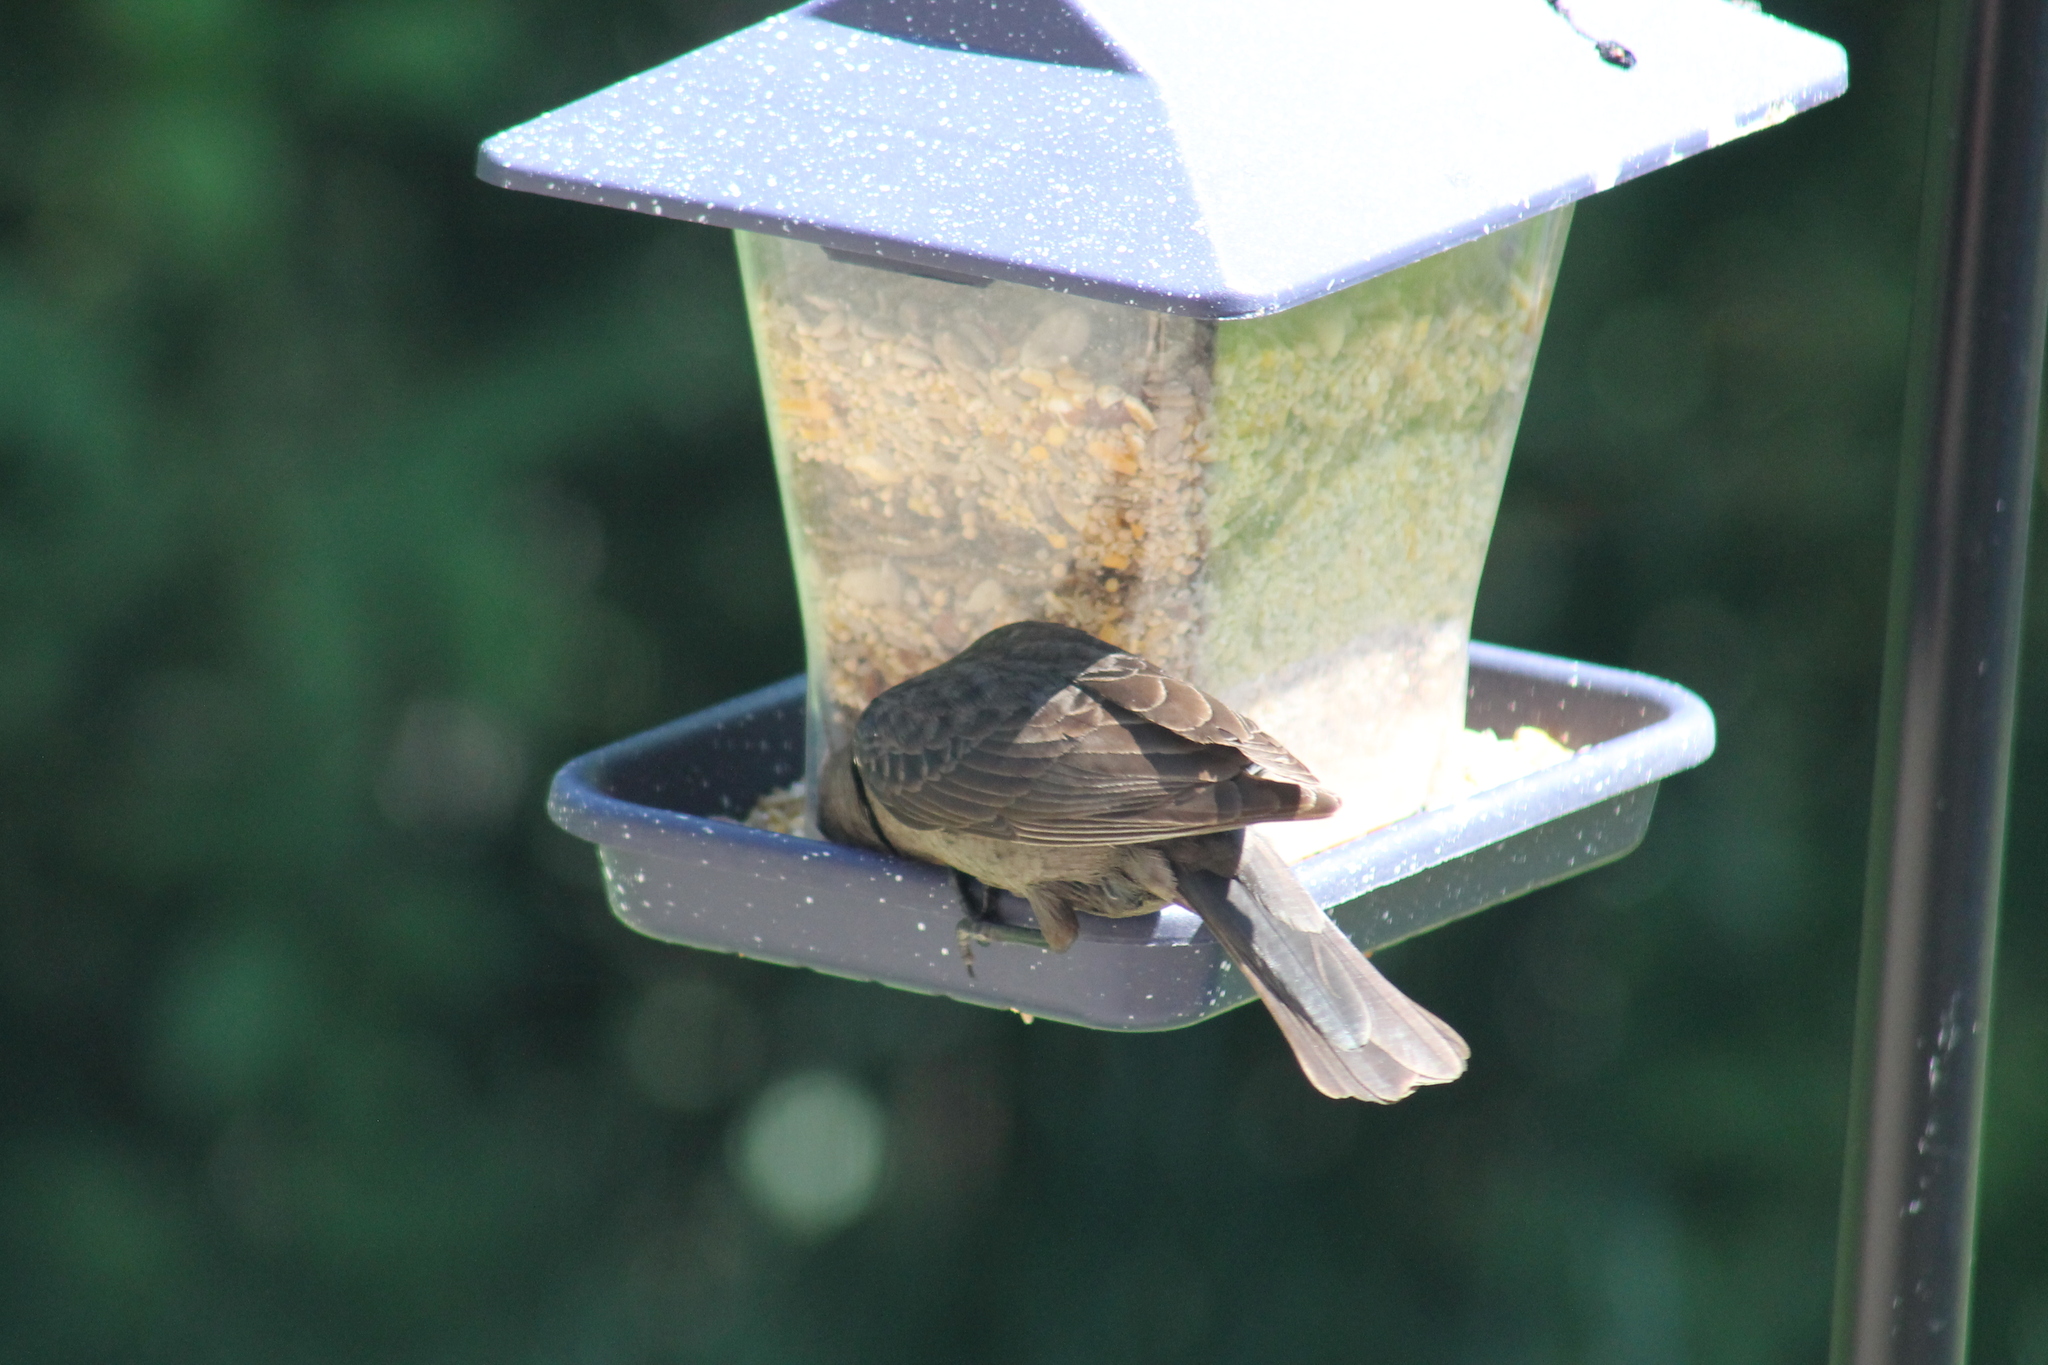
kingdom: Animalia
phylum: Chordata
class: Aves
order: Passeriformes
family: Icteridae
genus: Molothrus
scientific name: Molothrus ater
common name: Brown-headed cowbird
